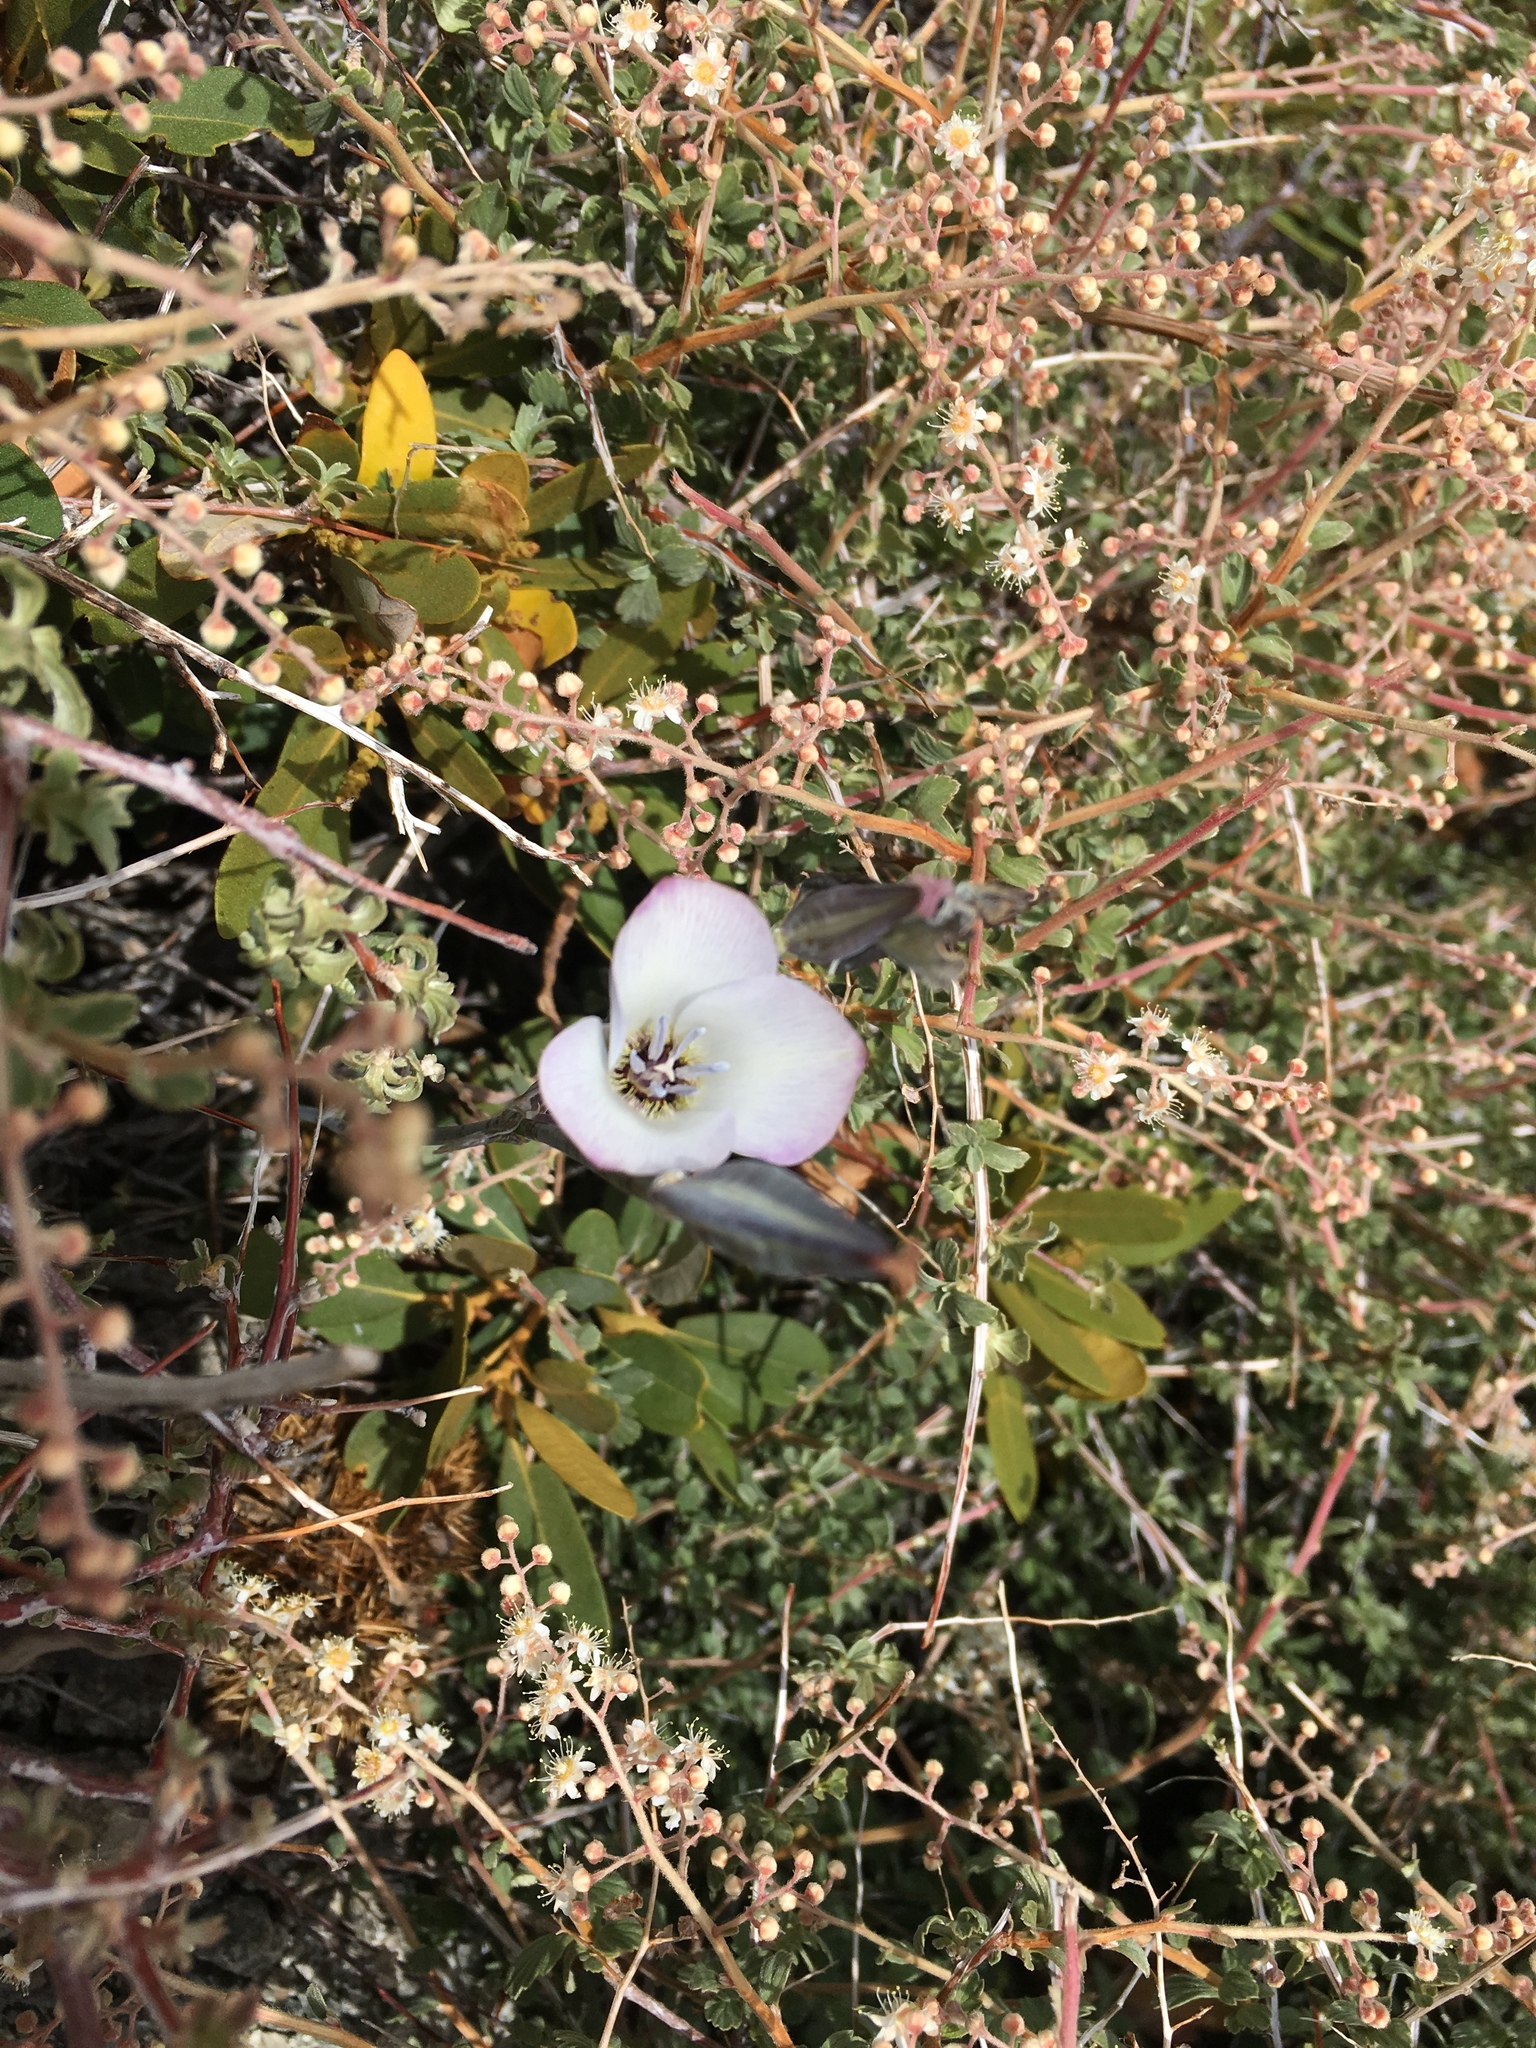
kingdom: Plantae
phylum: Tracheophyta
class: Liliopsida
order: Liliales
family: Liliaceae
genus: Calochortus
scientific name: Calochortus invenustus
